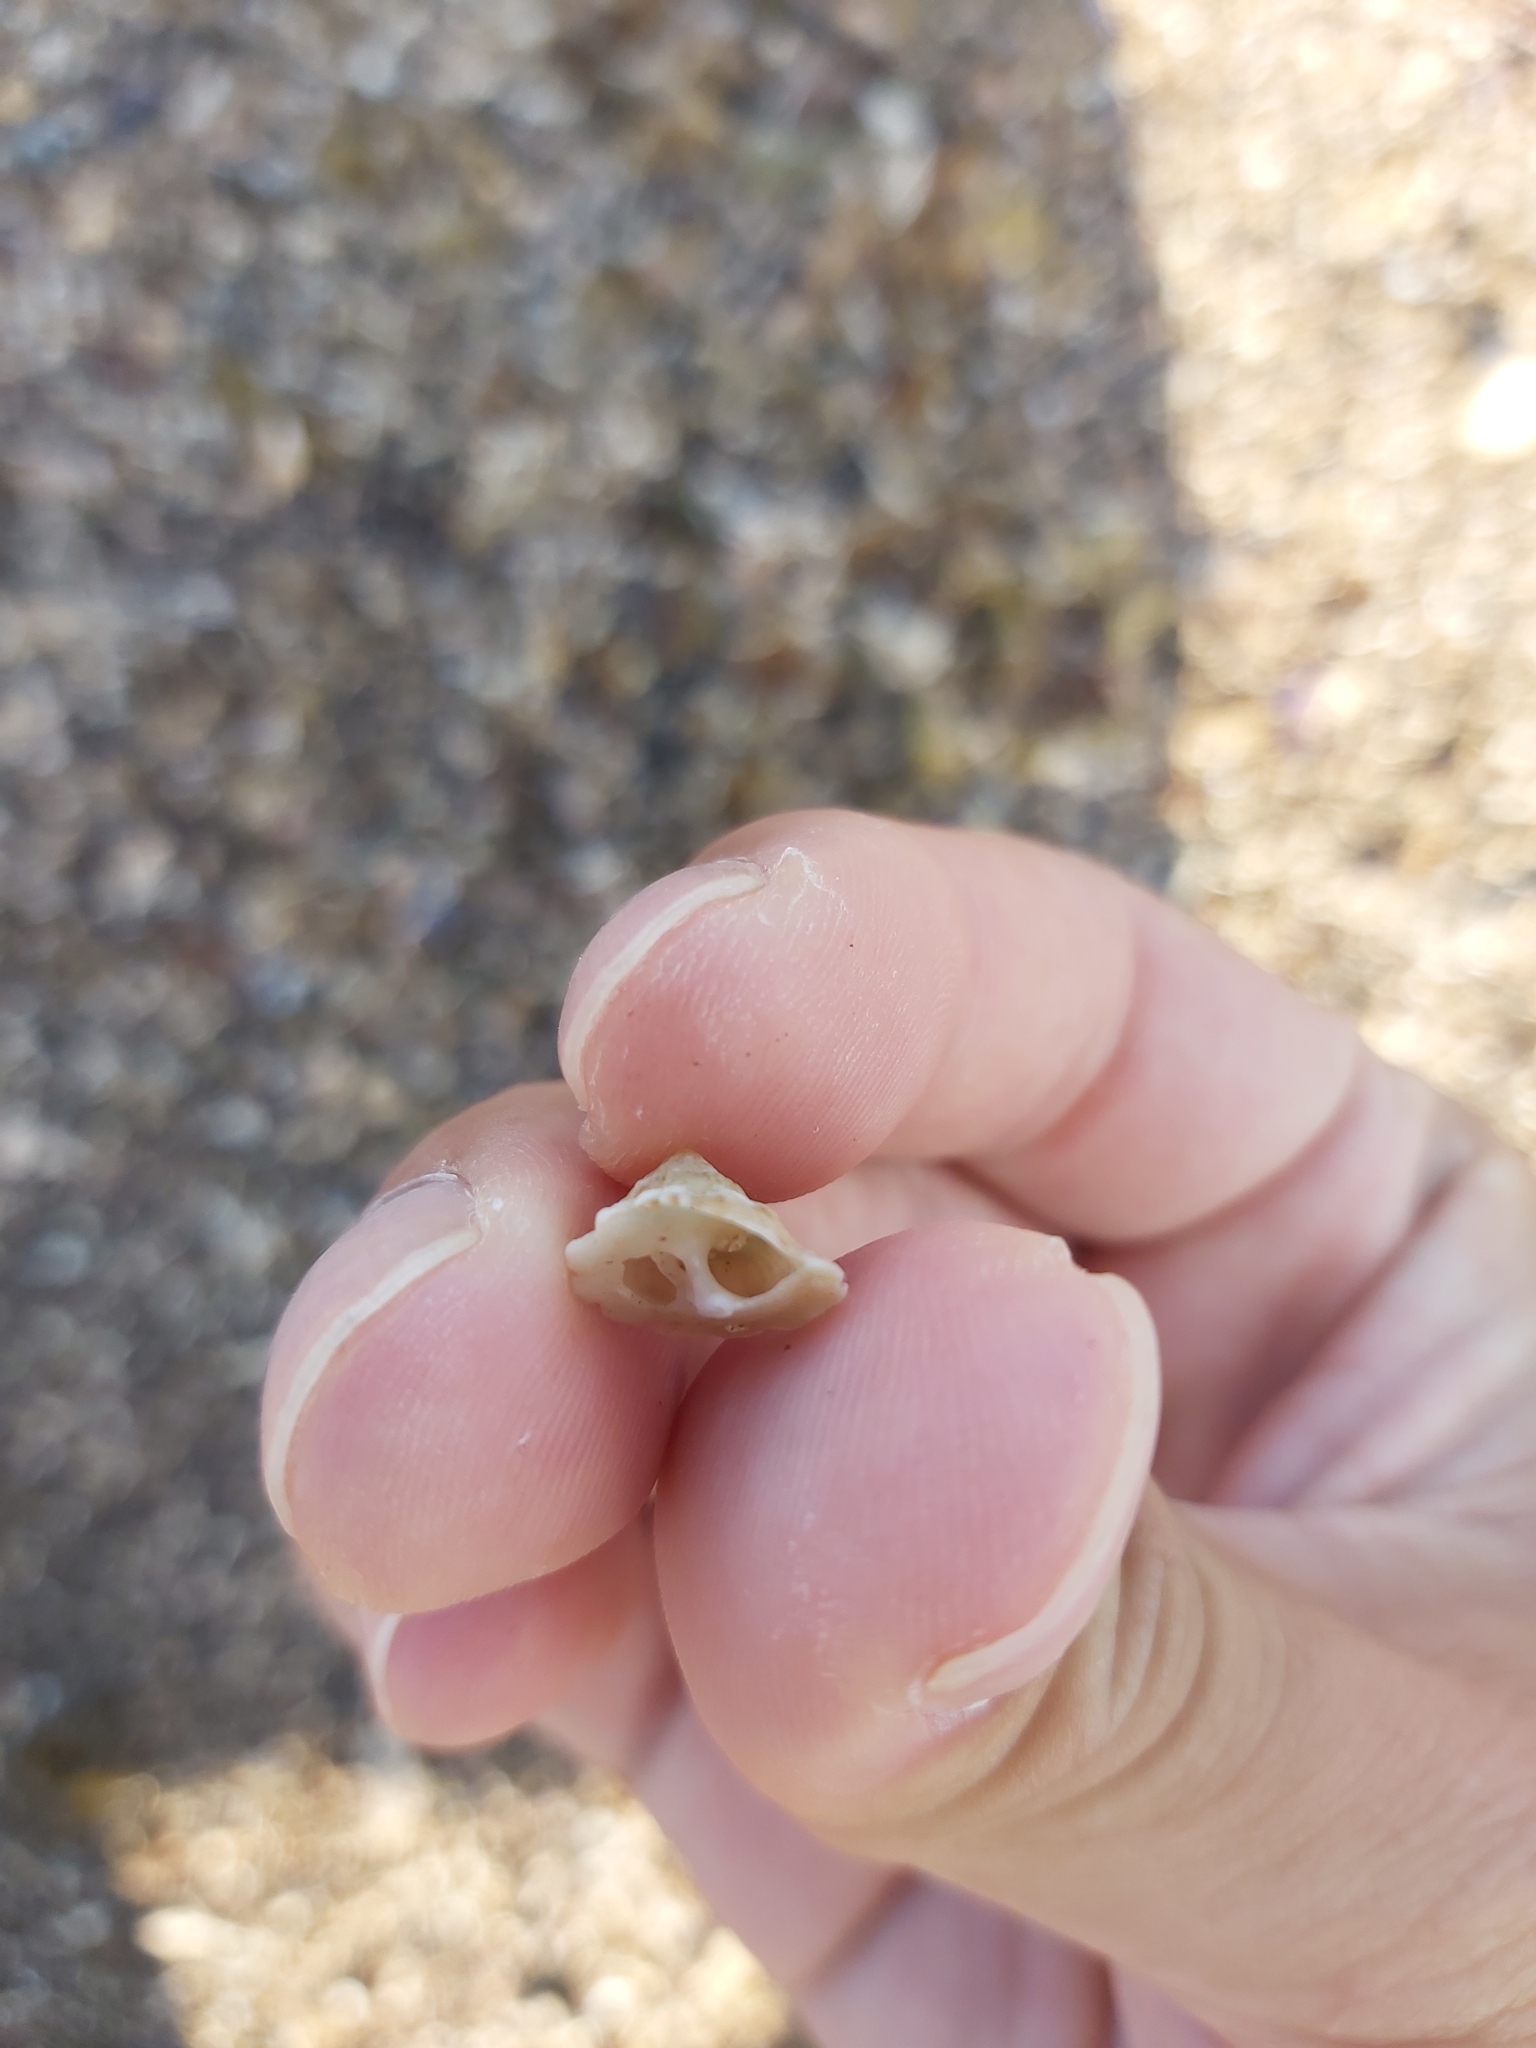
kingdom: Animalia
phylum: Mollusca
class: Gastropoda
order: Trochida
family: Turbinidae
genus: Bellastraea
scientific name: Bellastraea squamifera
